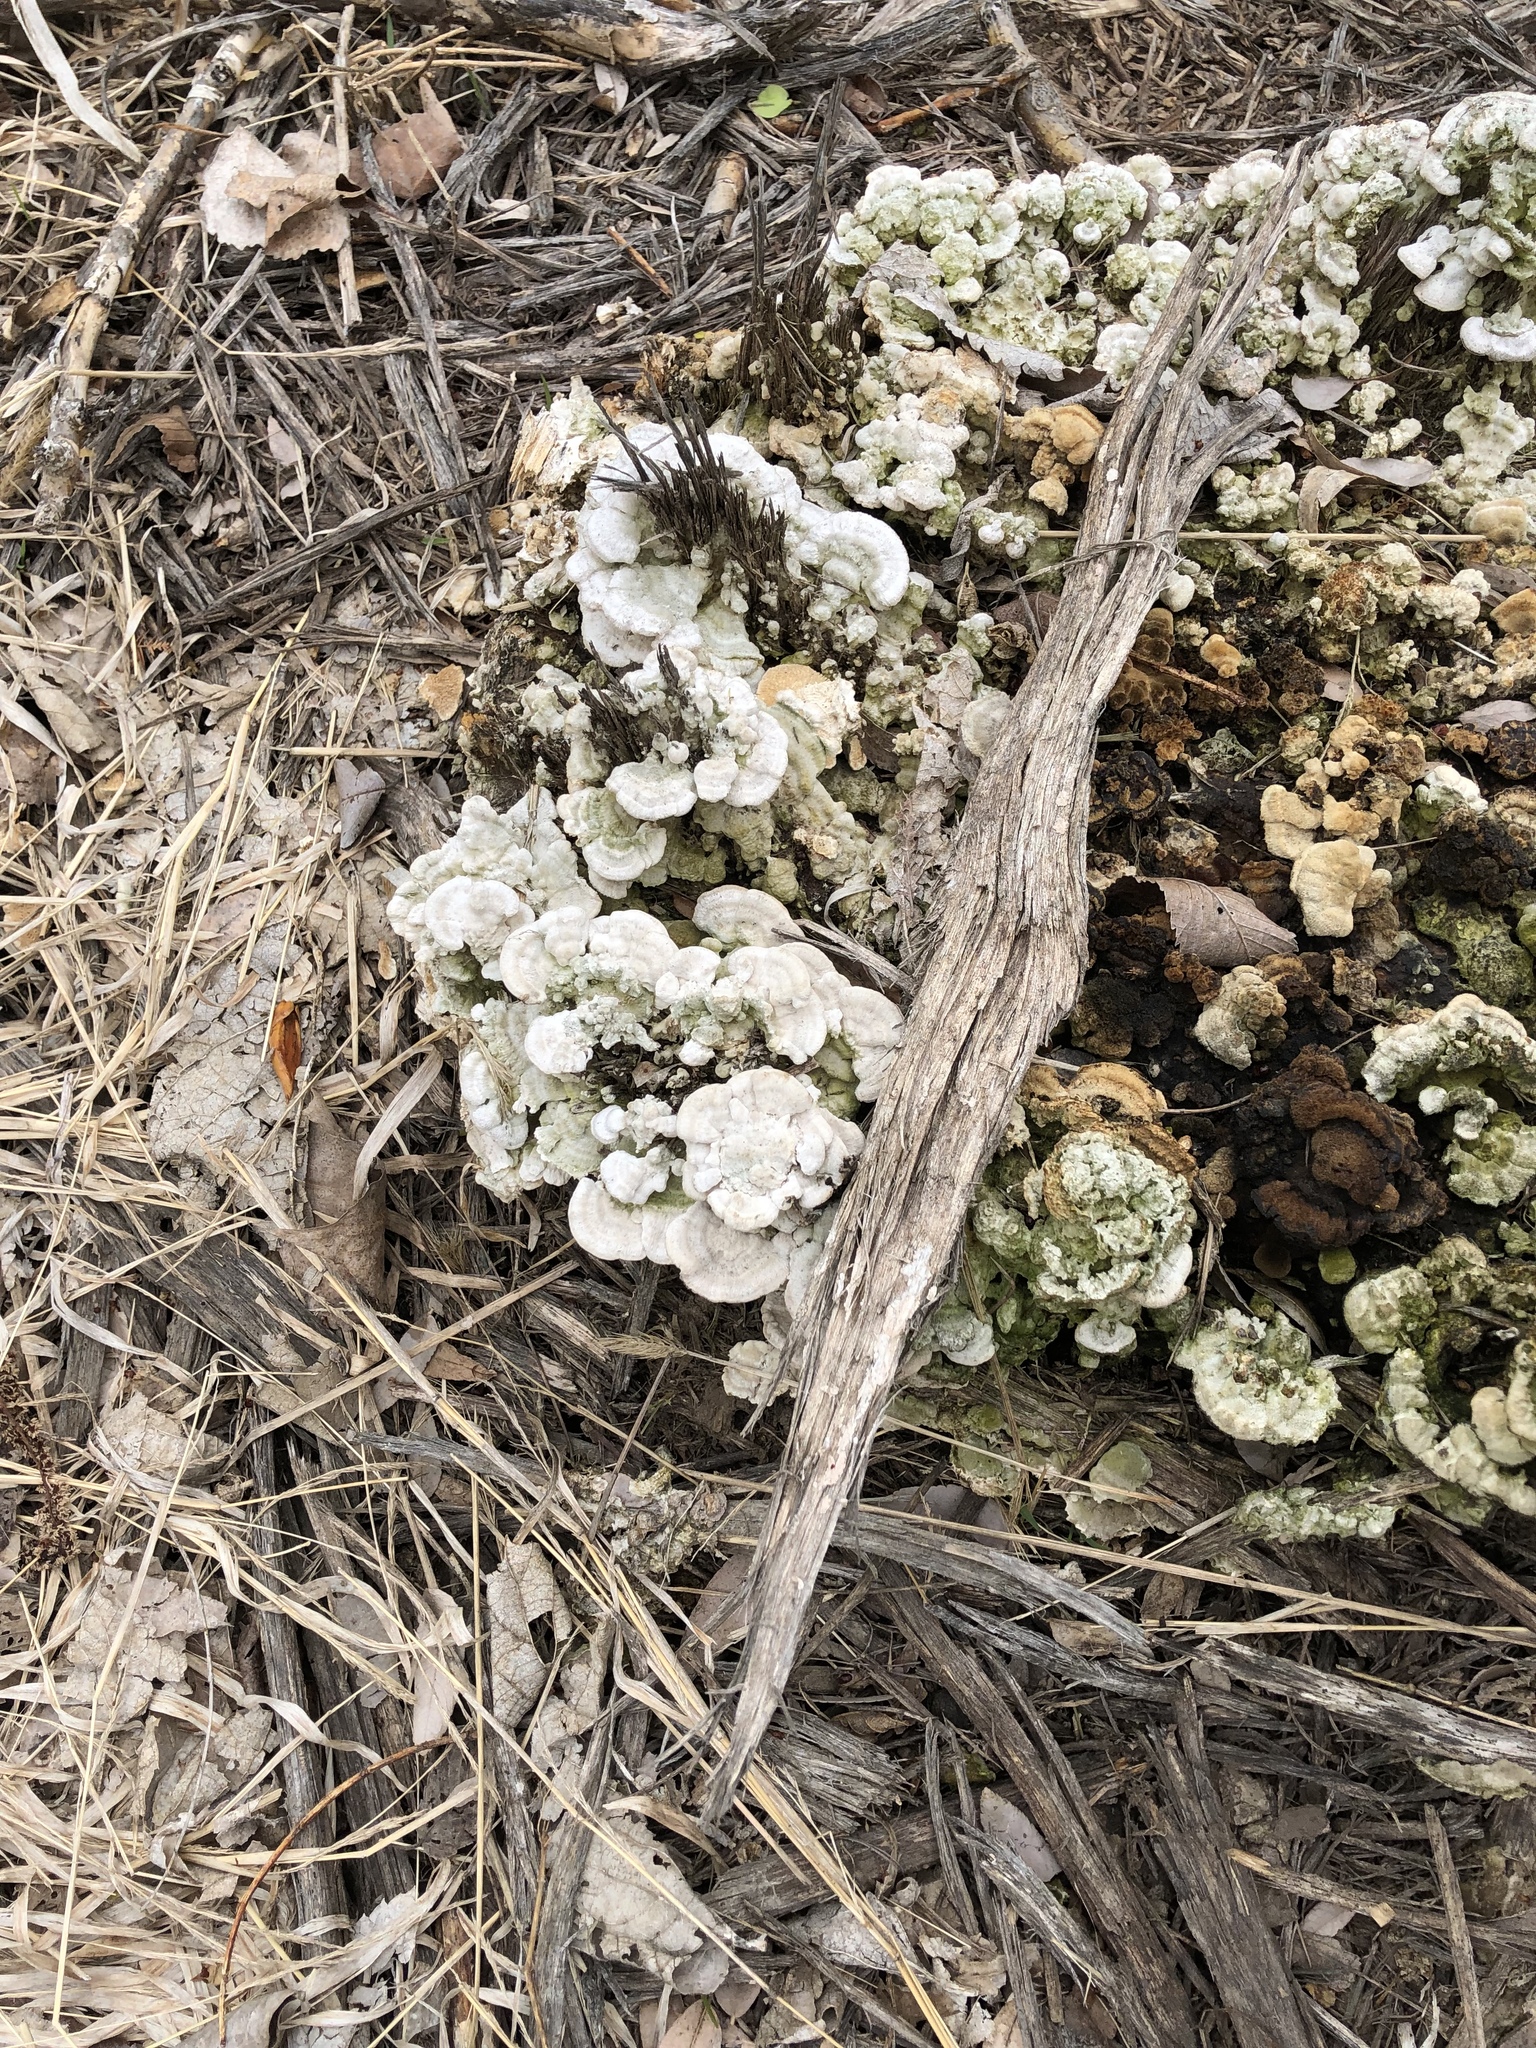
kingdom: Fungi
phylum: Basidiomycota
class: Agaricomycetes
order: Polyporales
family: Polyporaceae
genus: Trametes
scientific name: Trametes versicolor
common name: Turkeytail
